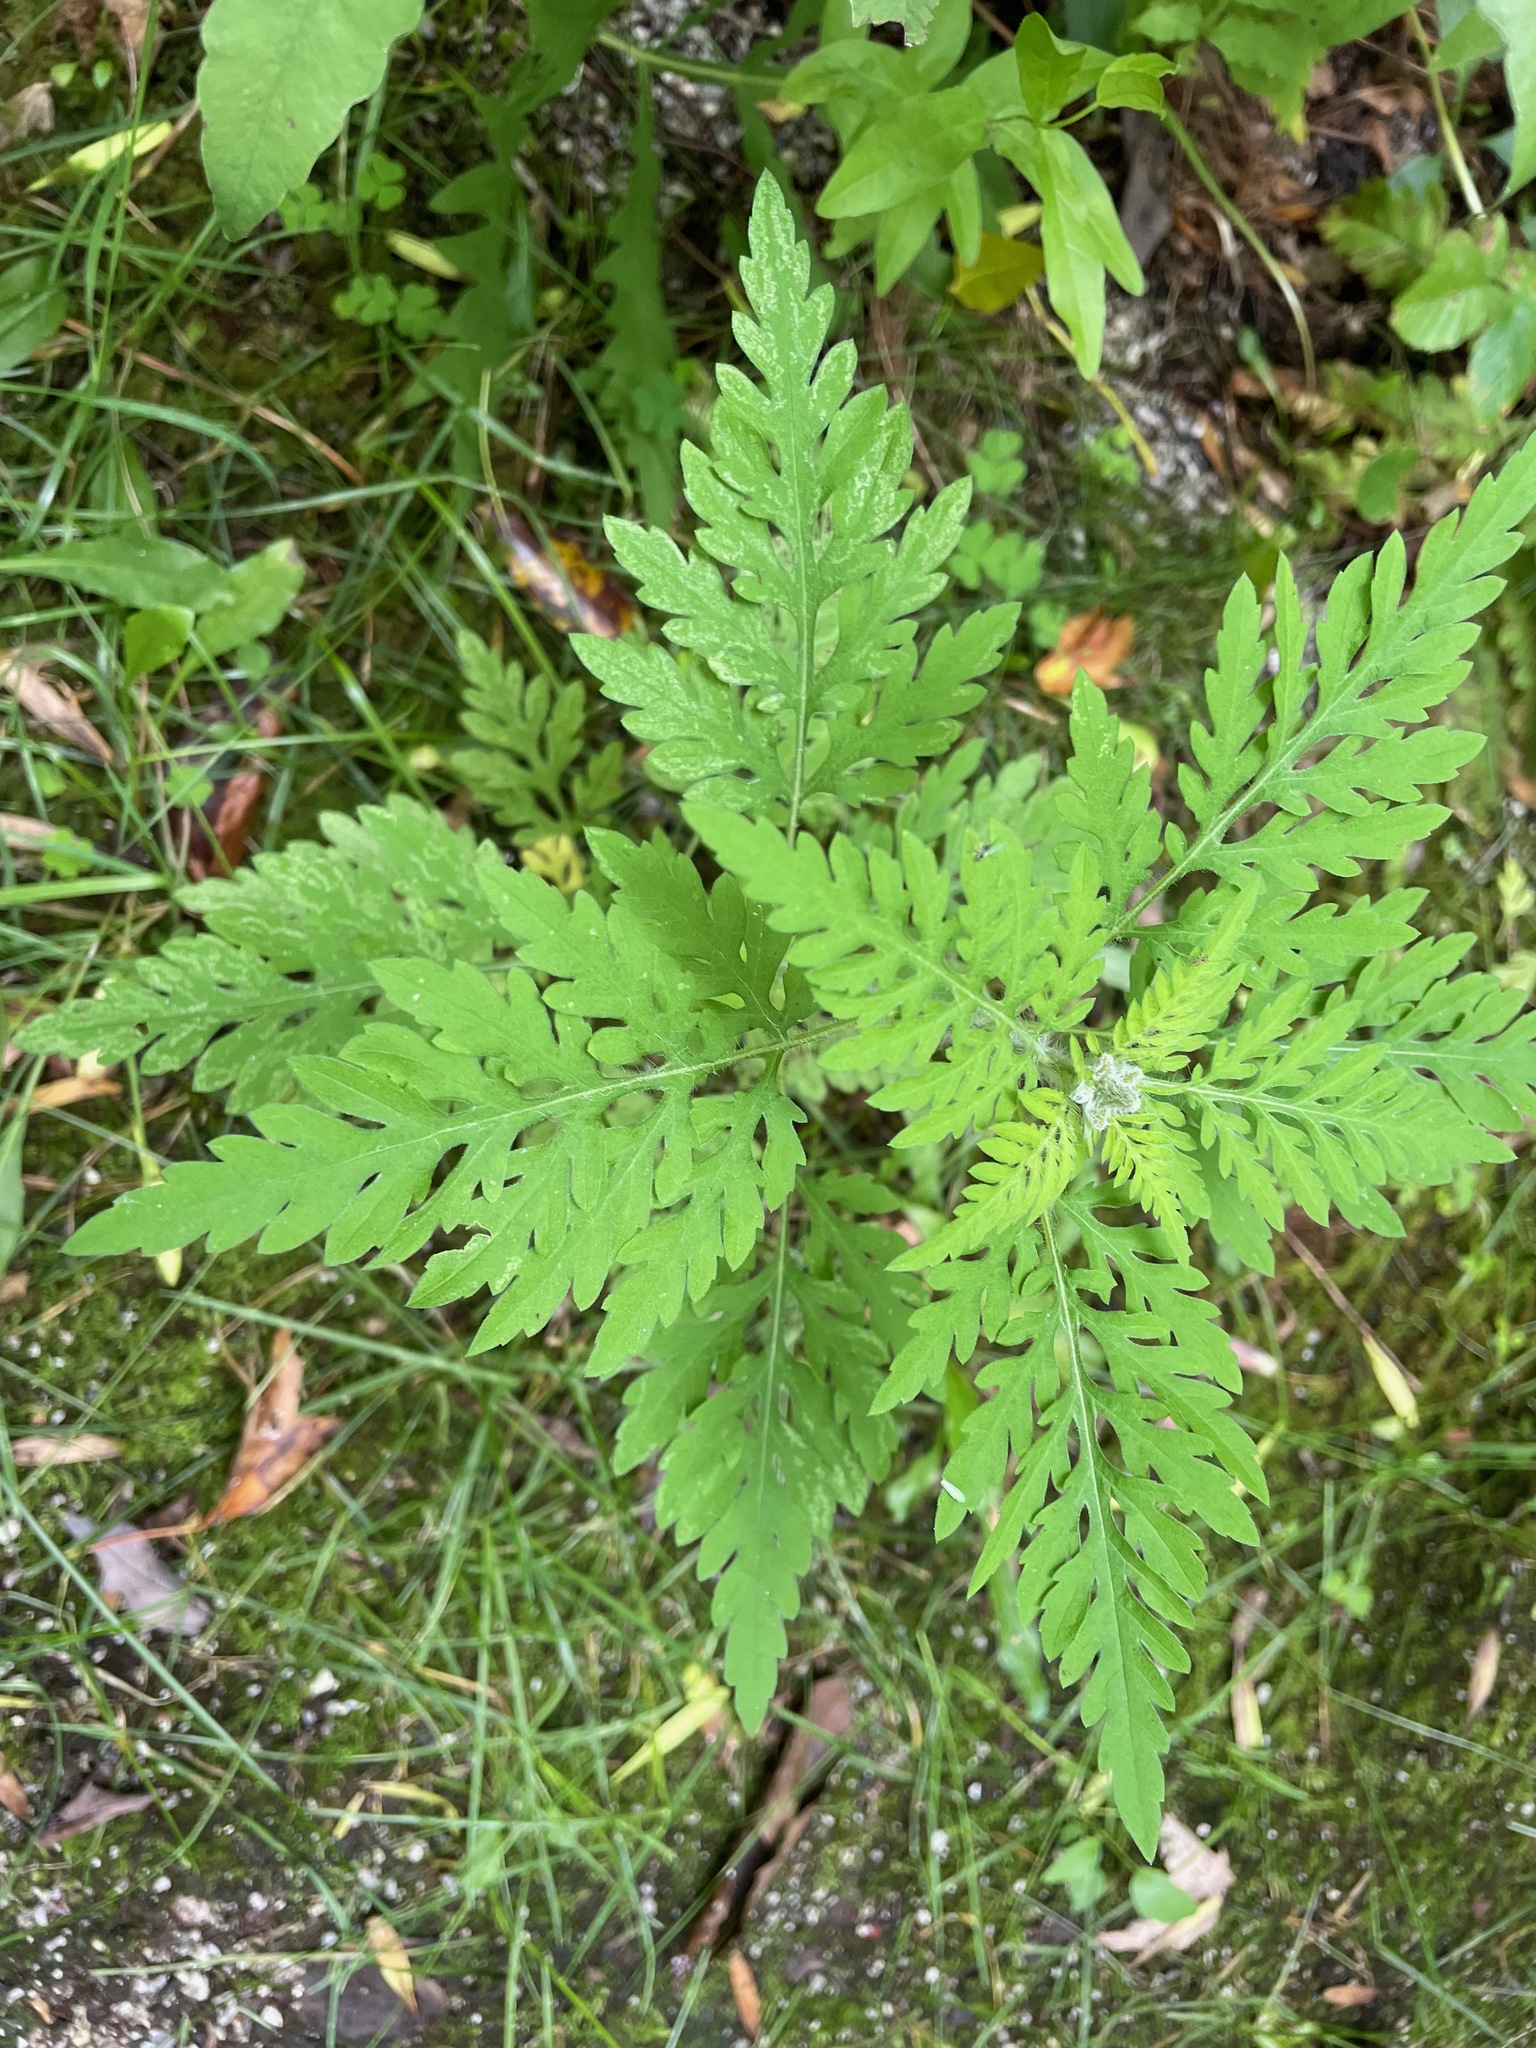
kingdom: Plantae
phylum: Tracheophyta
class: Magnoliopsida
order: Asterales
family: Asteraceae
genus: Ambrosia
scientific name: Ambrosia artemisiifolia
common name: Annual ragweed
